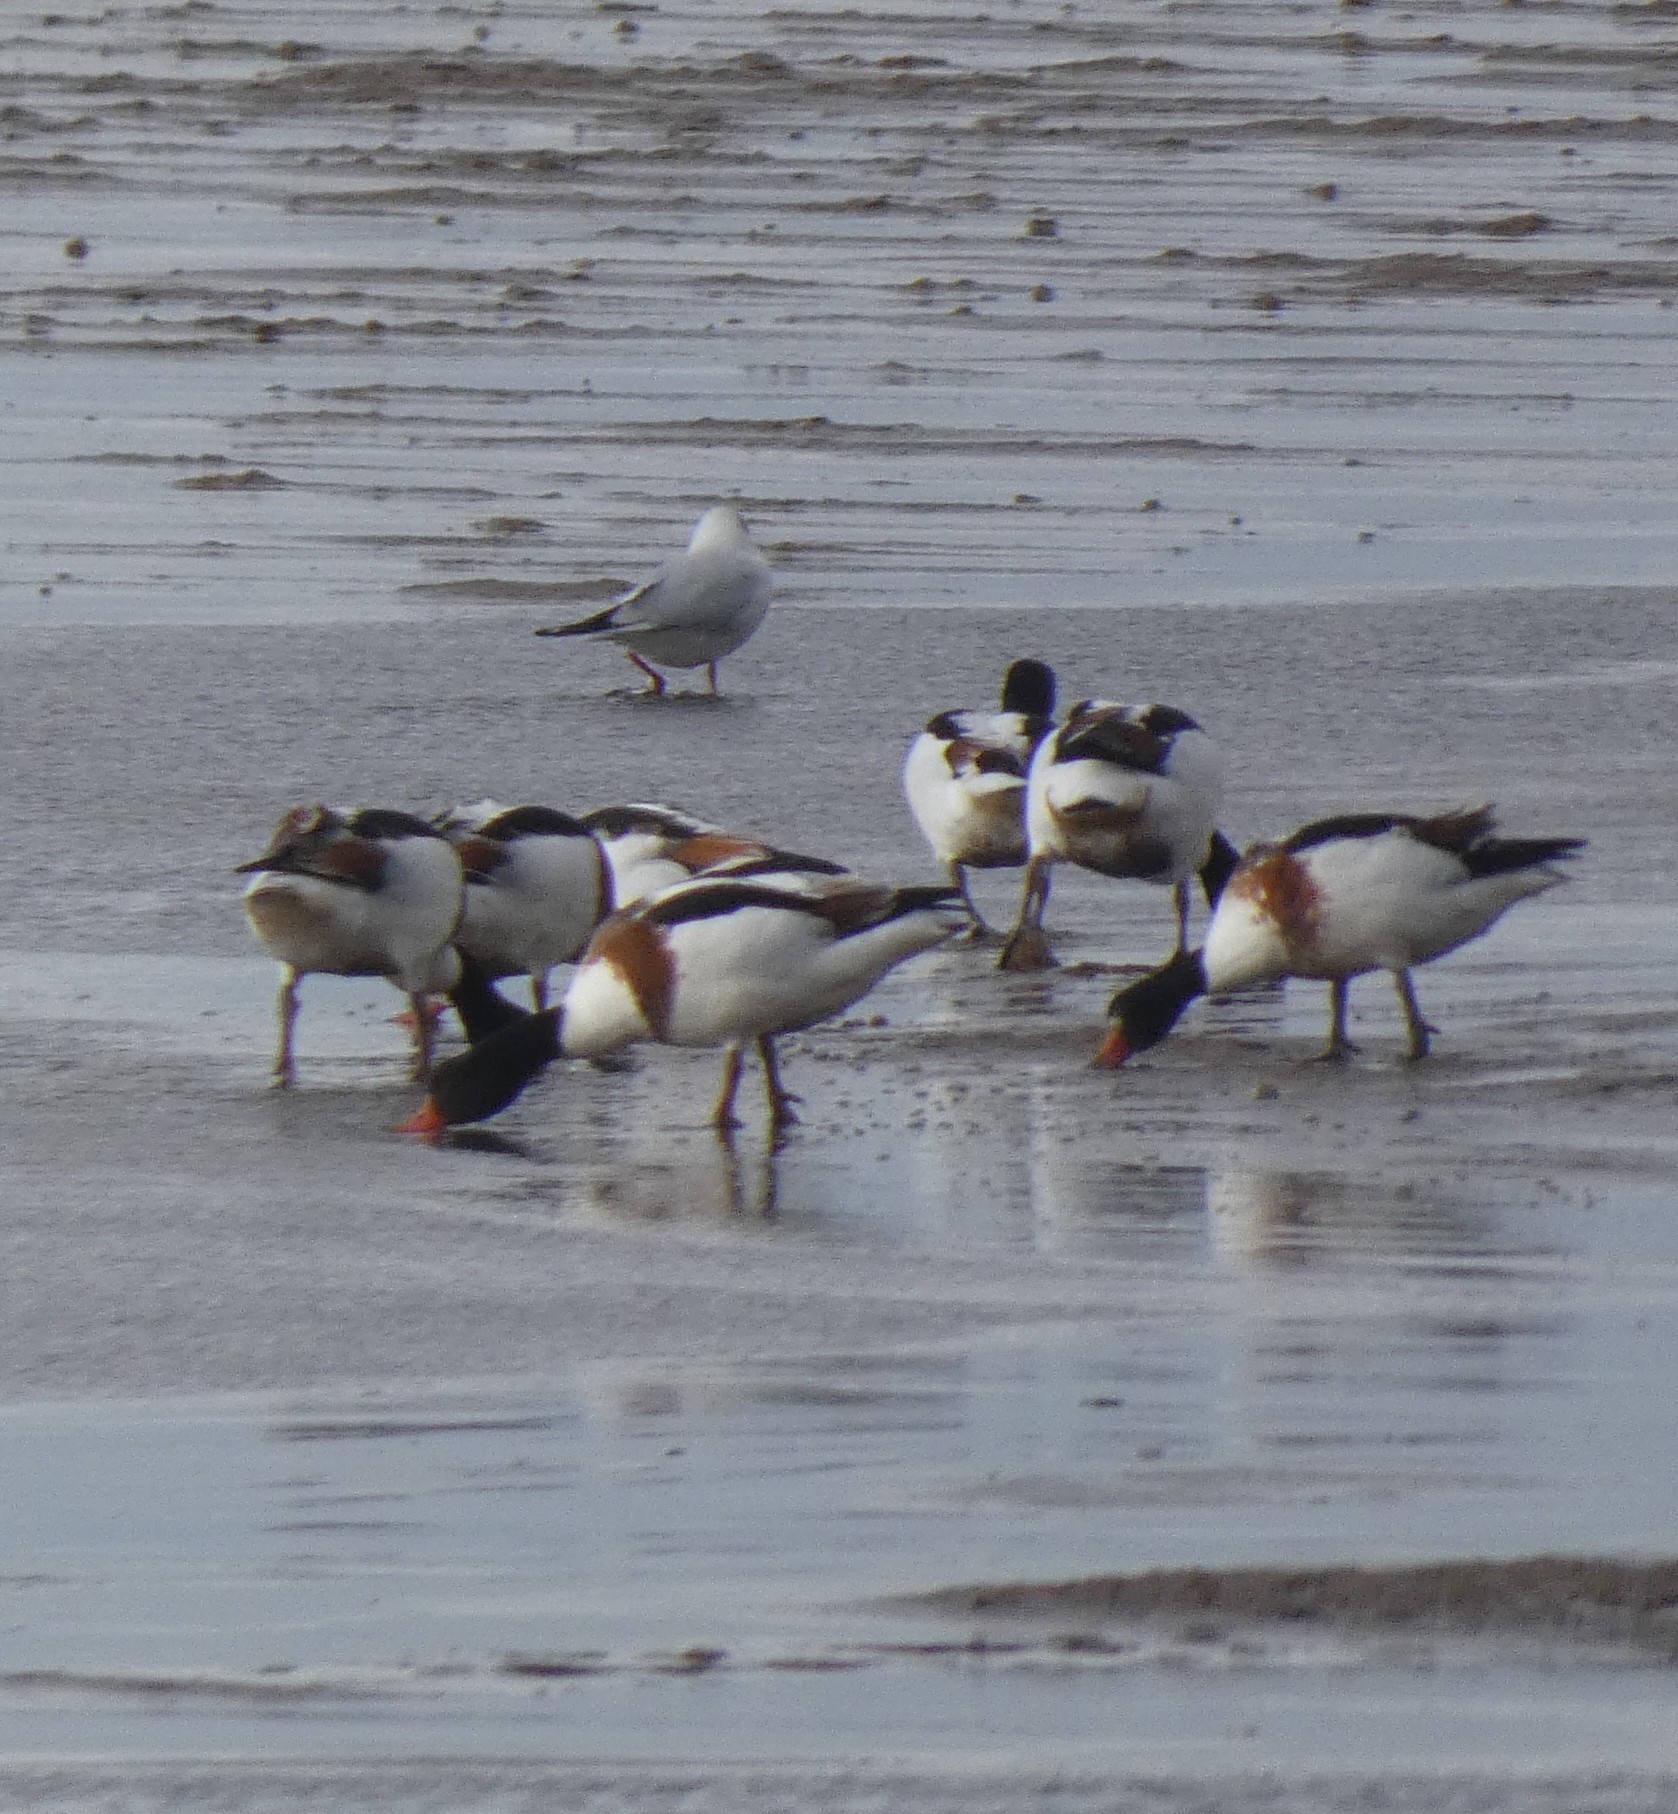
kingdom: Animalia
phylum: Chordata
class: Aves
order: Anseriformes
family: Anatidae
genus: Tadorna
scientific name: Tadorna tadorna
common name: Common shelduck
